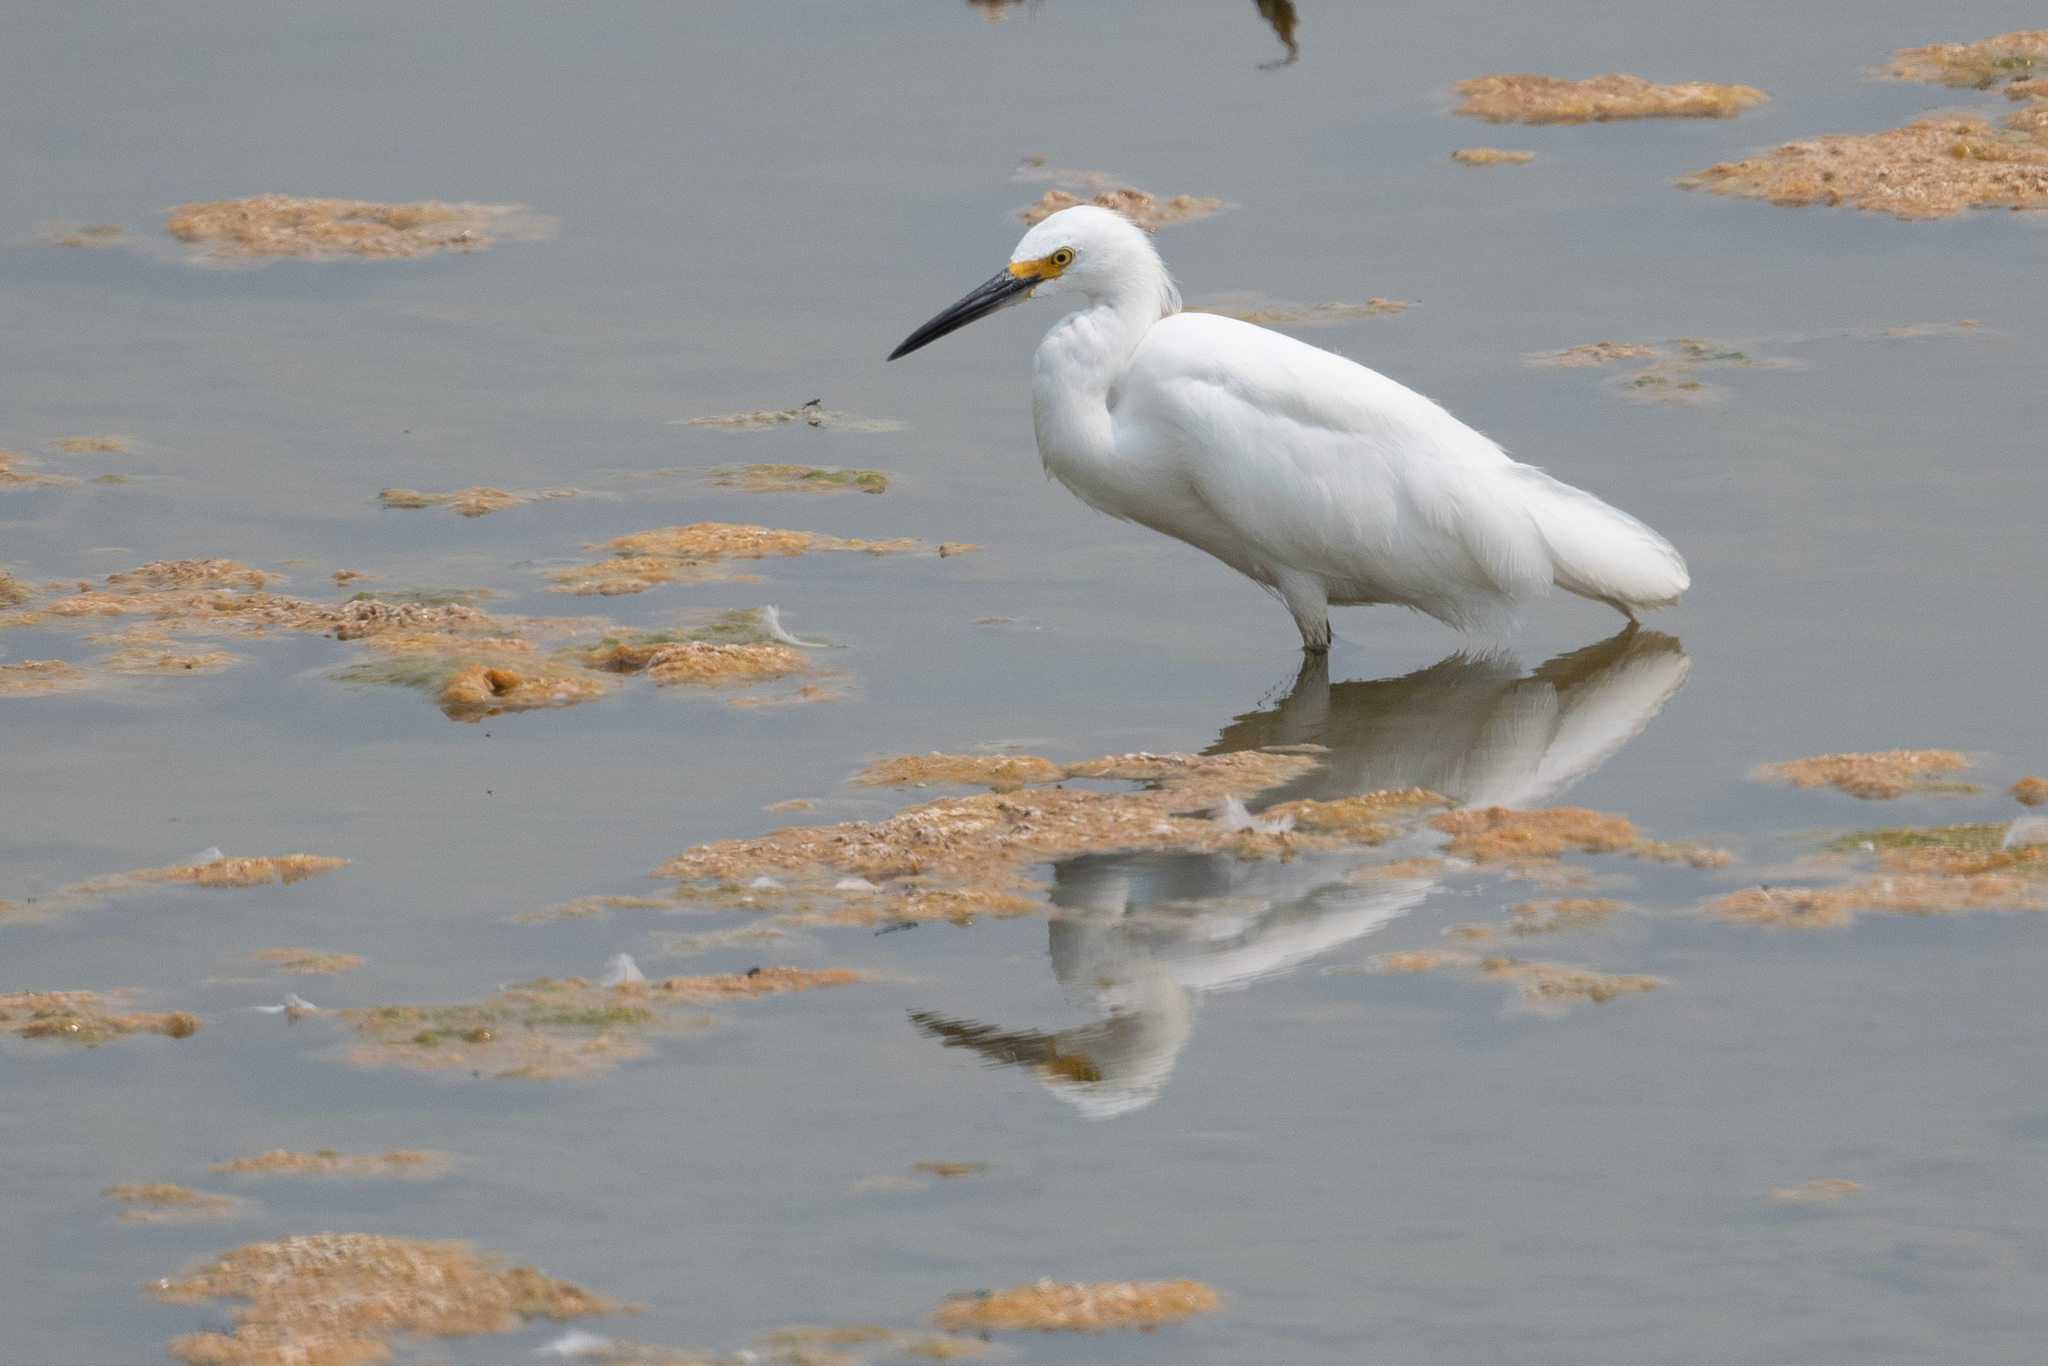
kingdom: Animalia
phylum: Chordata
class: Aves
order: Pelecaniformes
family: Ardeidae
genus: Egretta
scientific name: Egretta thula
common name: Snowy egret
